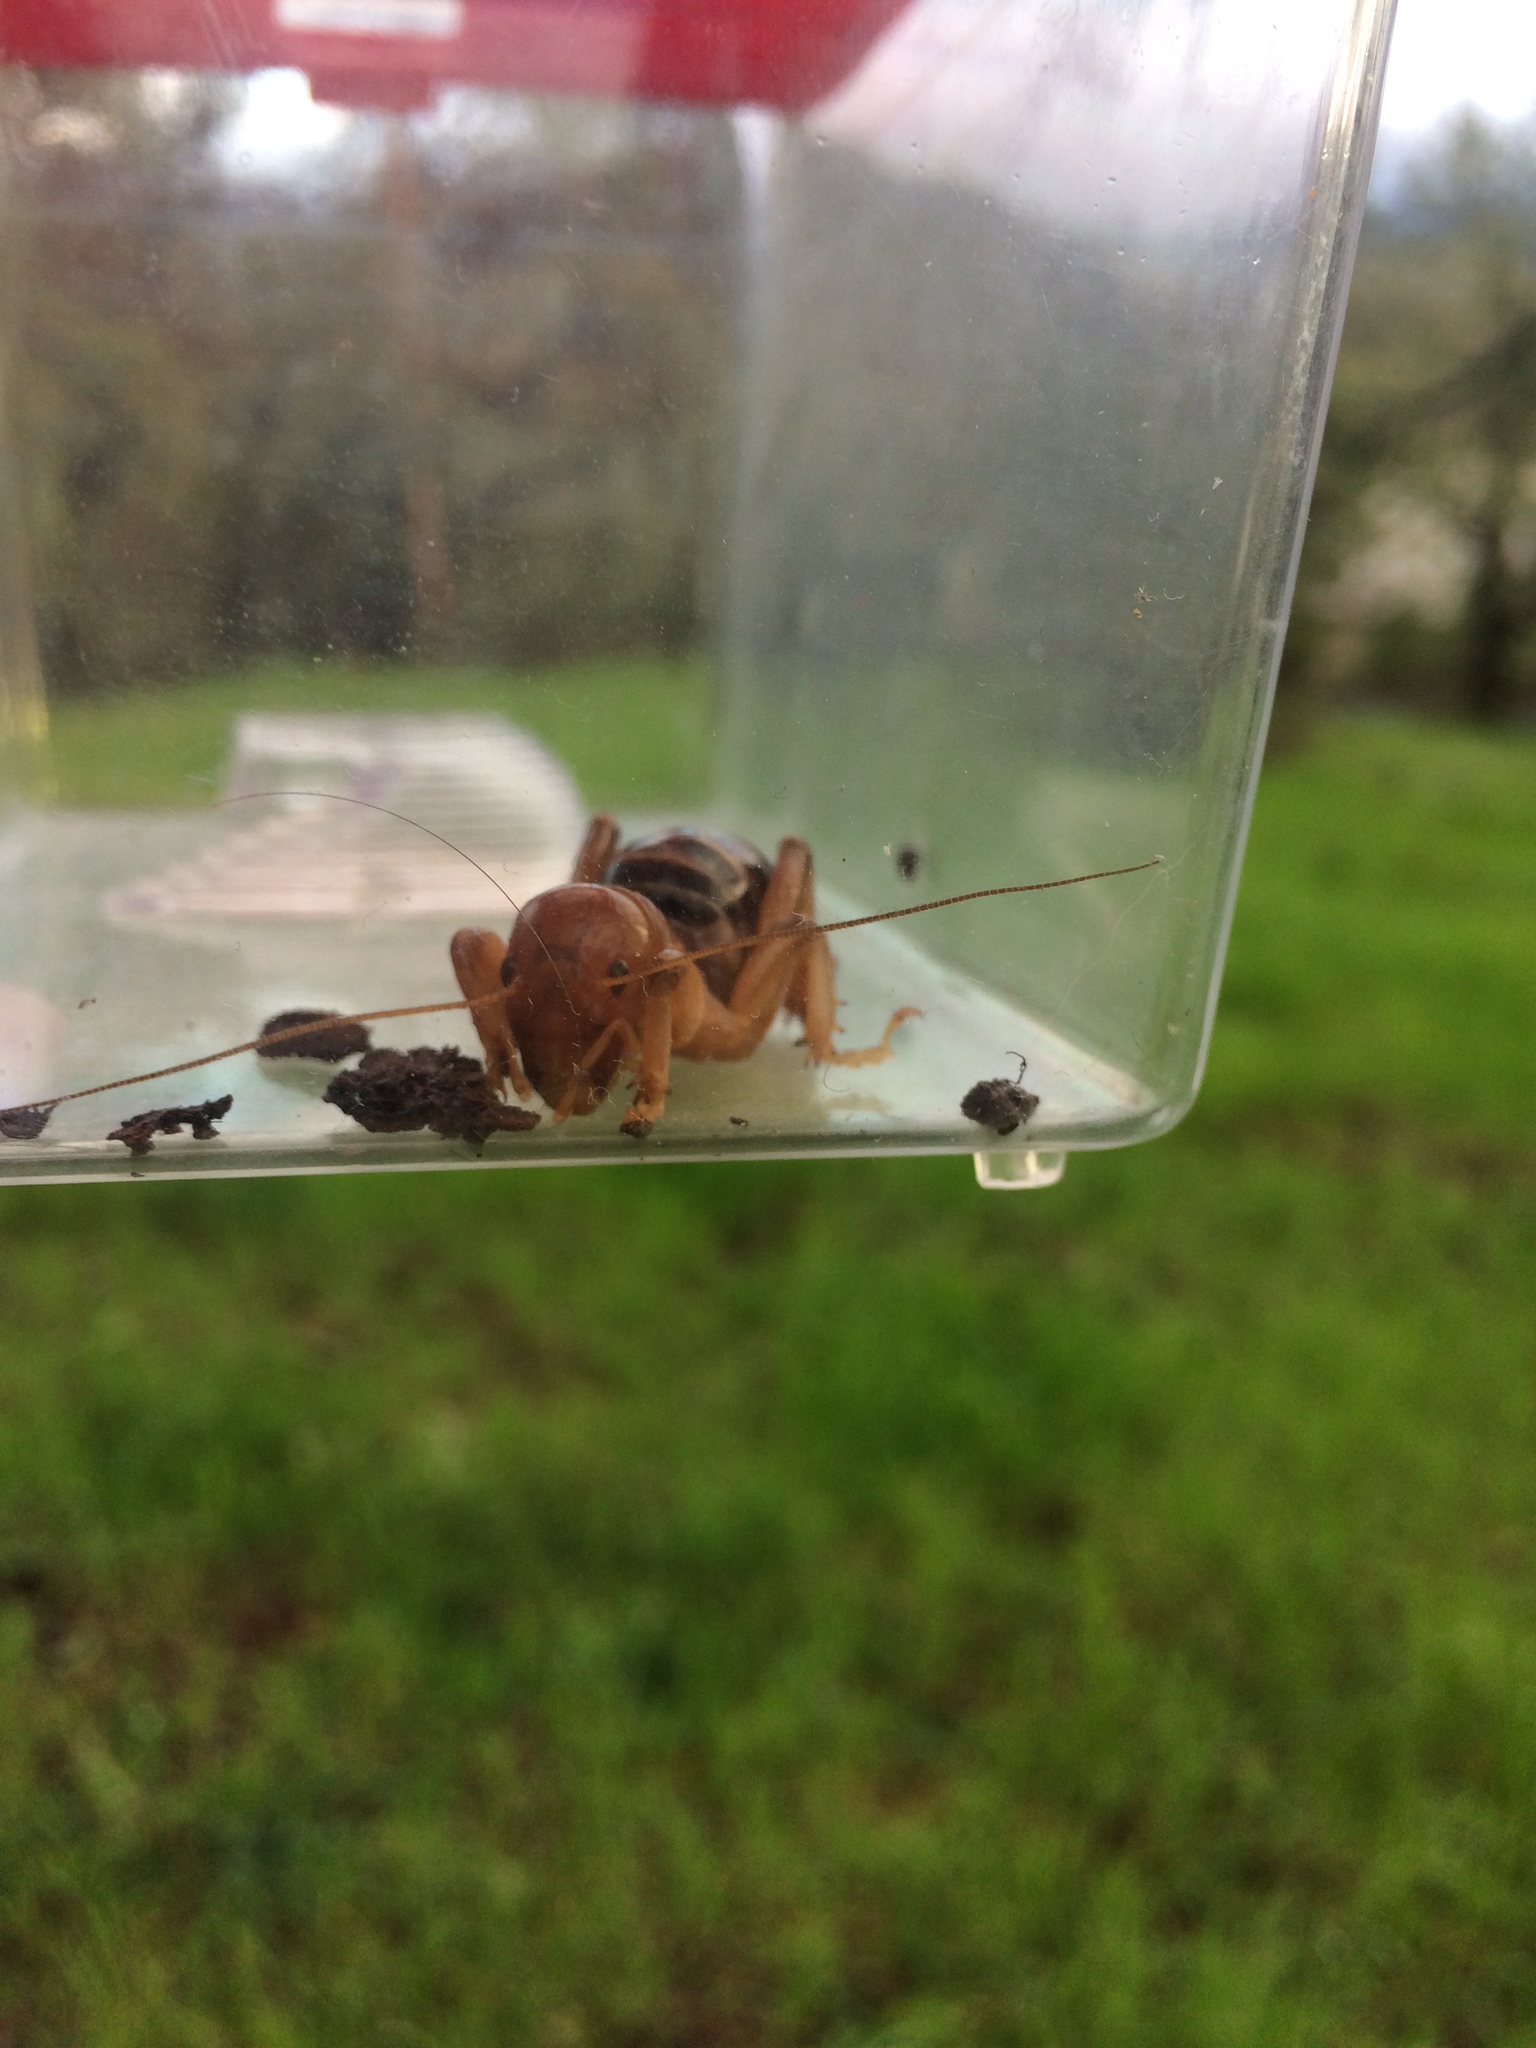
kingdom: Animalia
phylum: Arthropoda
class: Insecta
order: Orthoptera
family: Stenopelmatidae
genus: Ammopelmatus
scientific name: Ammopelmatus
